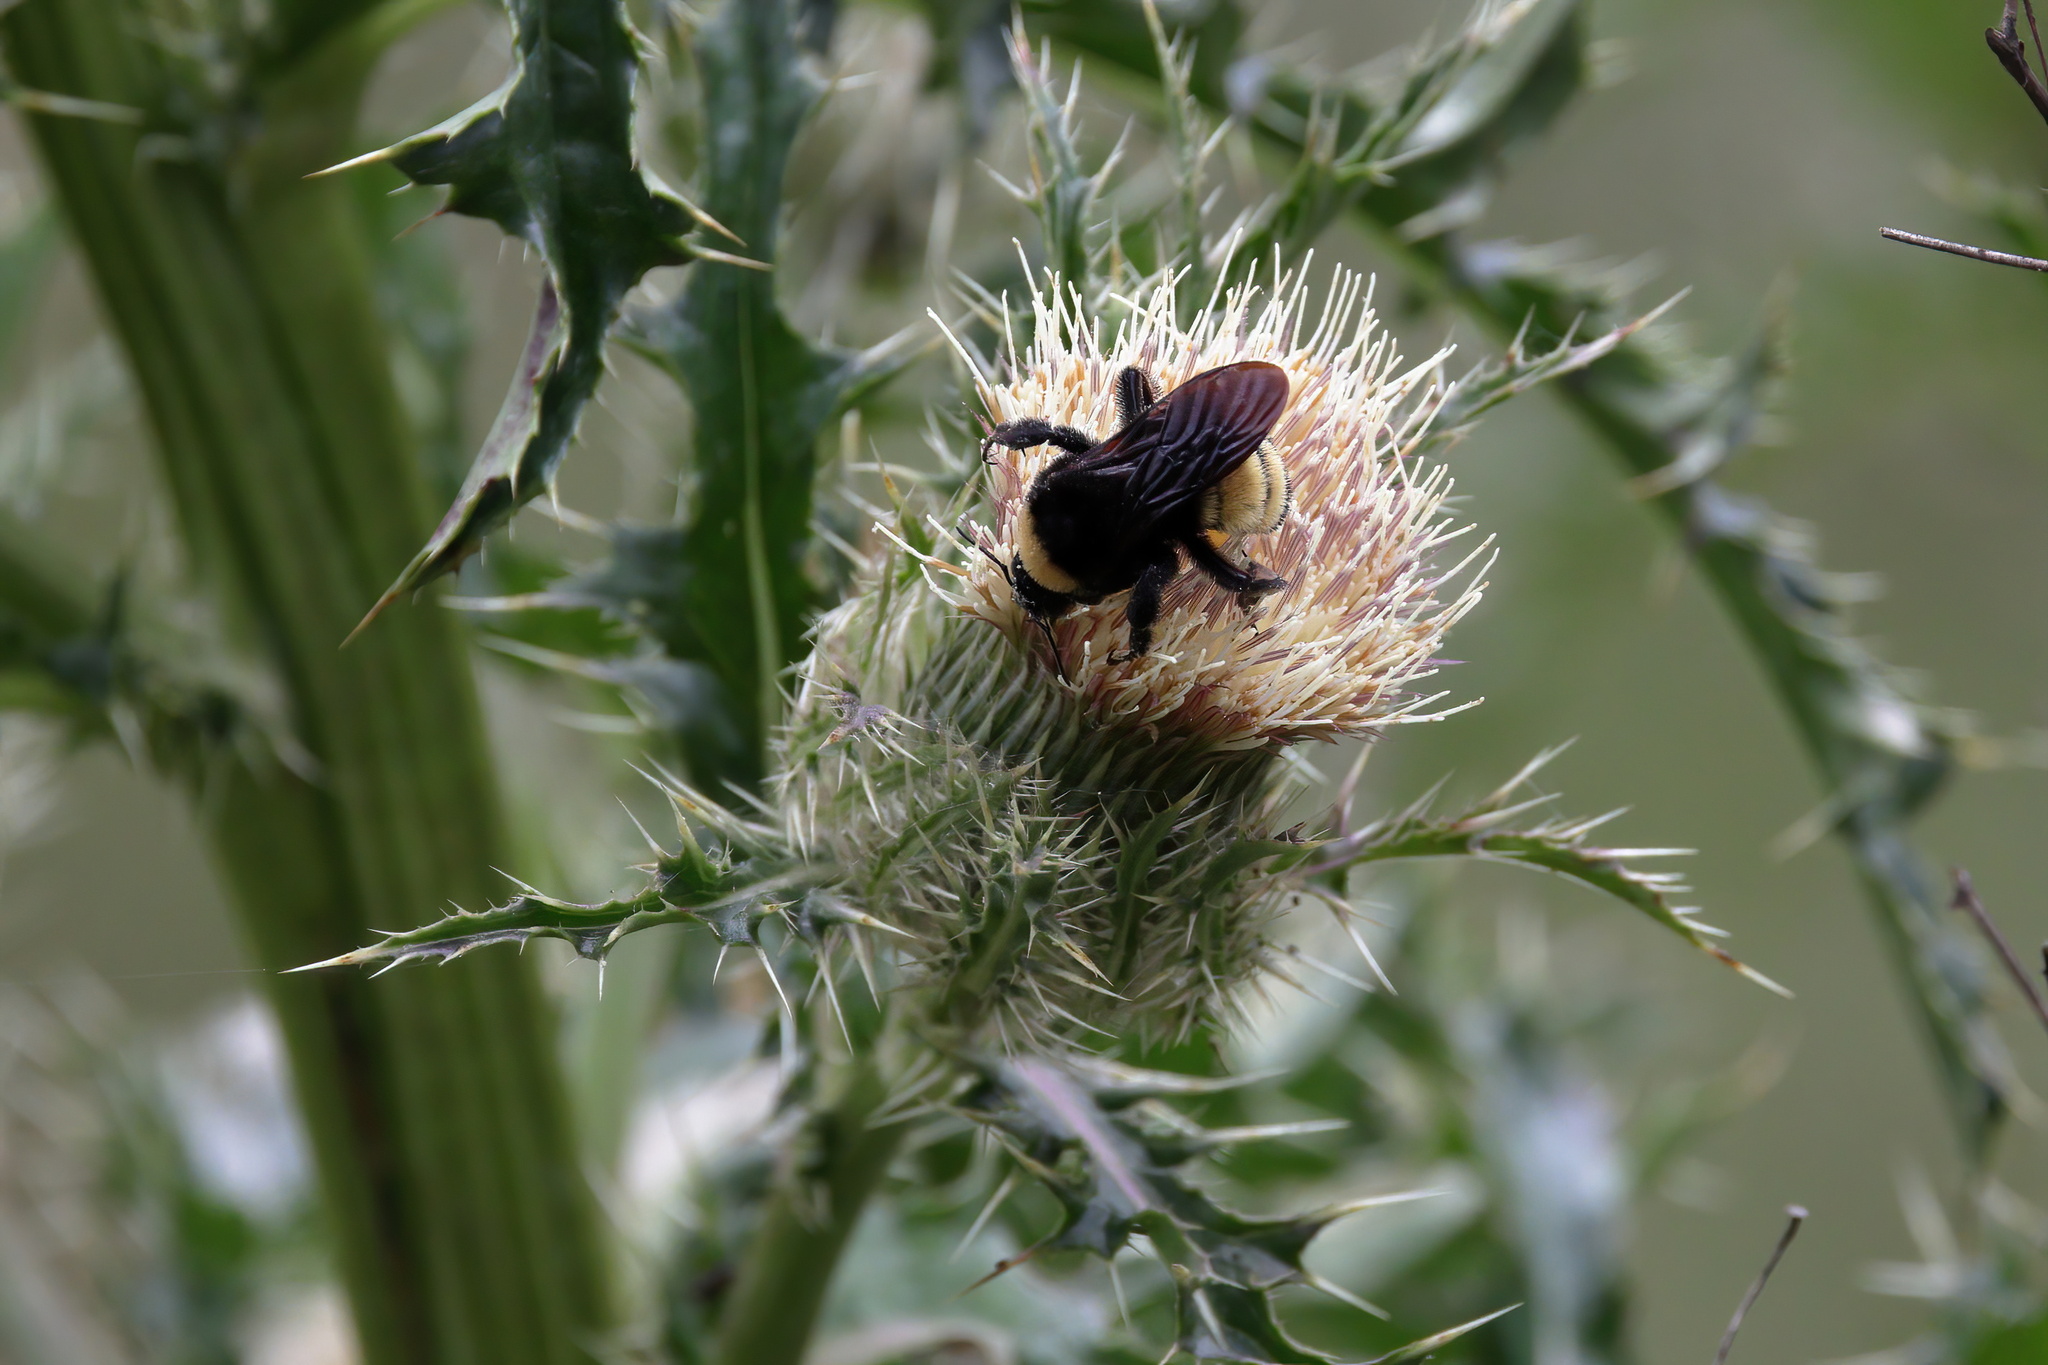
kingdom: Animalia
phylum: Arthropoda
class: Insecta
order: Hymenoptera
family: Apidae
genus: Bombus
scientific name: Bombus pensylvanicus
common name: Bumble bee
